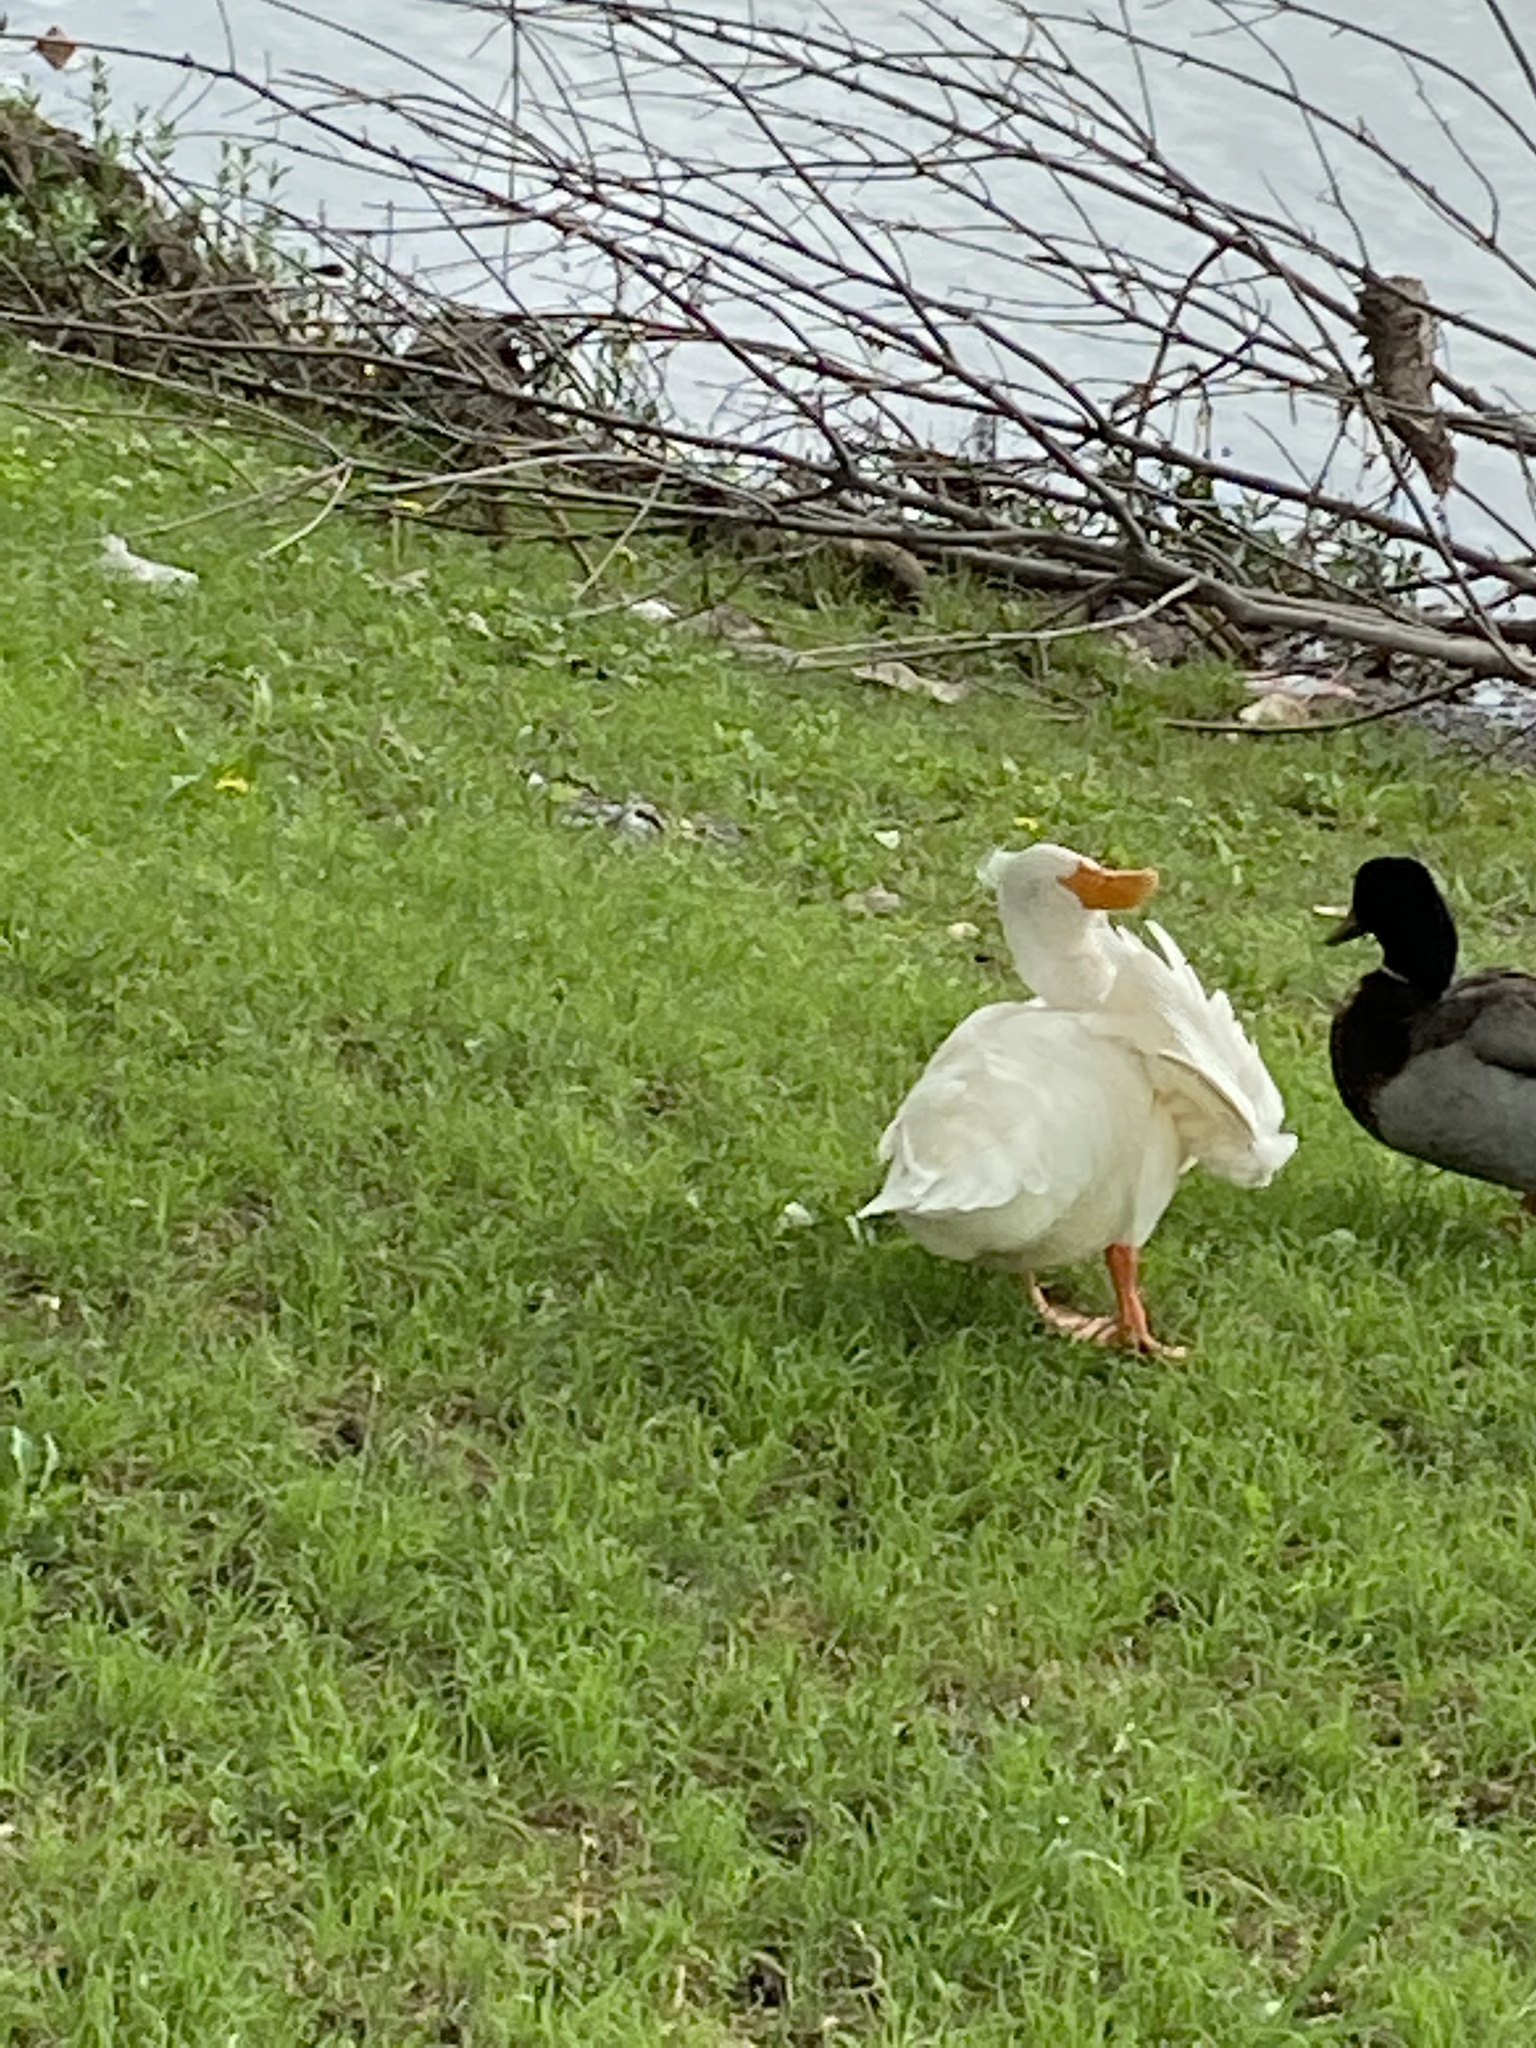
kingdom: Animalia
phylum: Chordata
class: Aves
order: Anseriformes
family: Anatidae
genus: Anas
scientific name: Anas platyrhynchos
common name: Mallard
